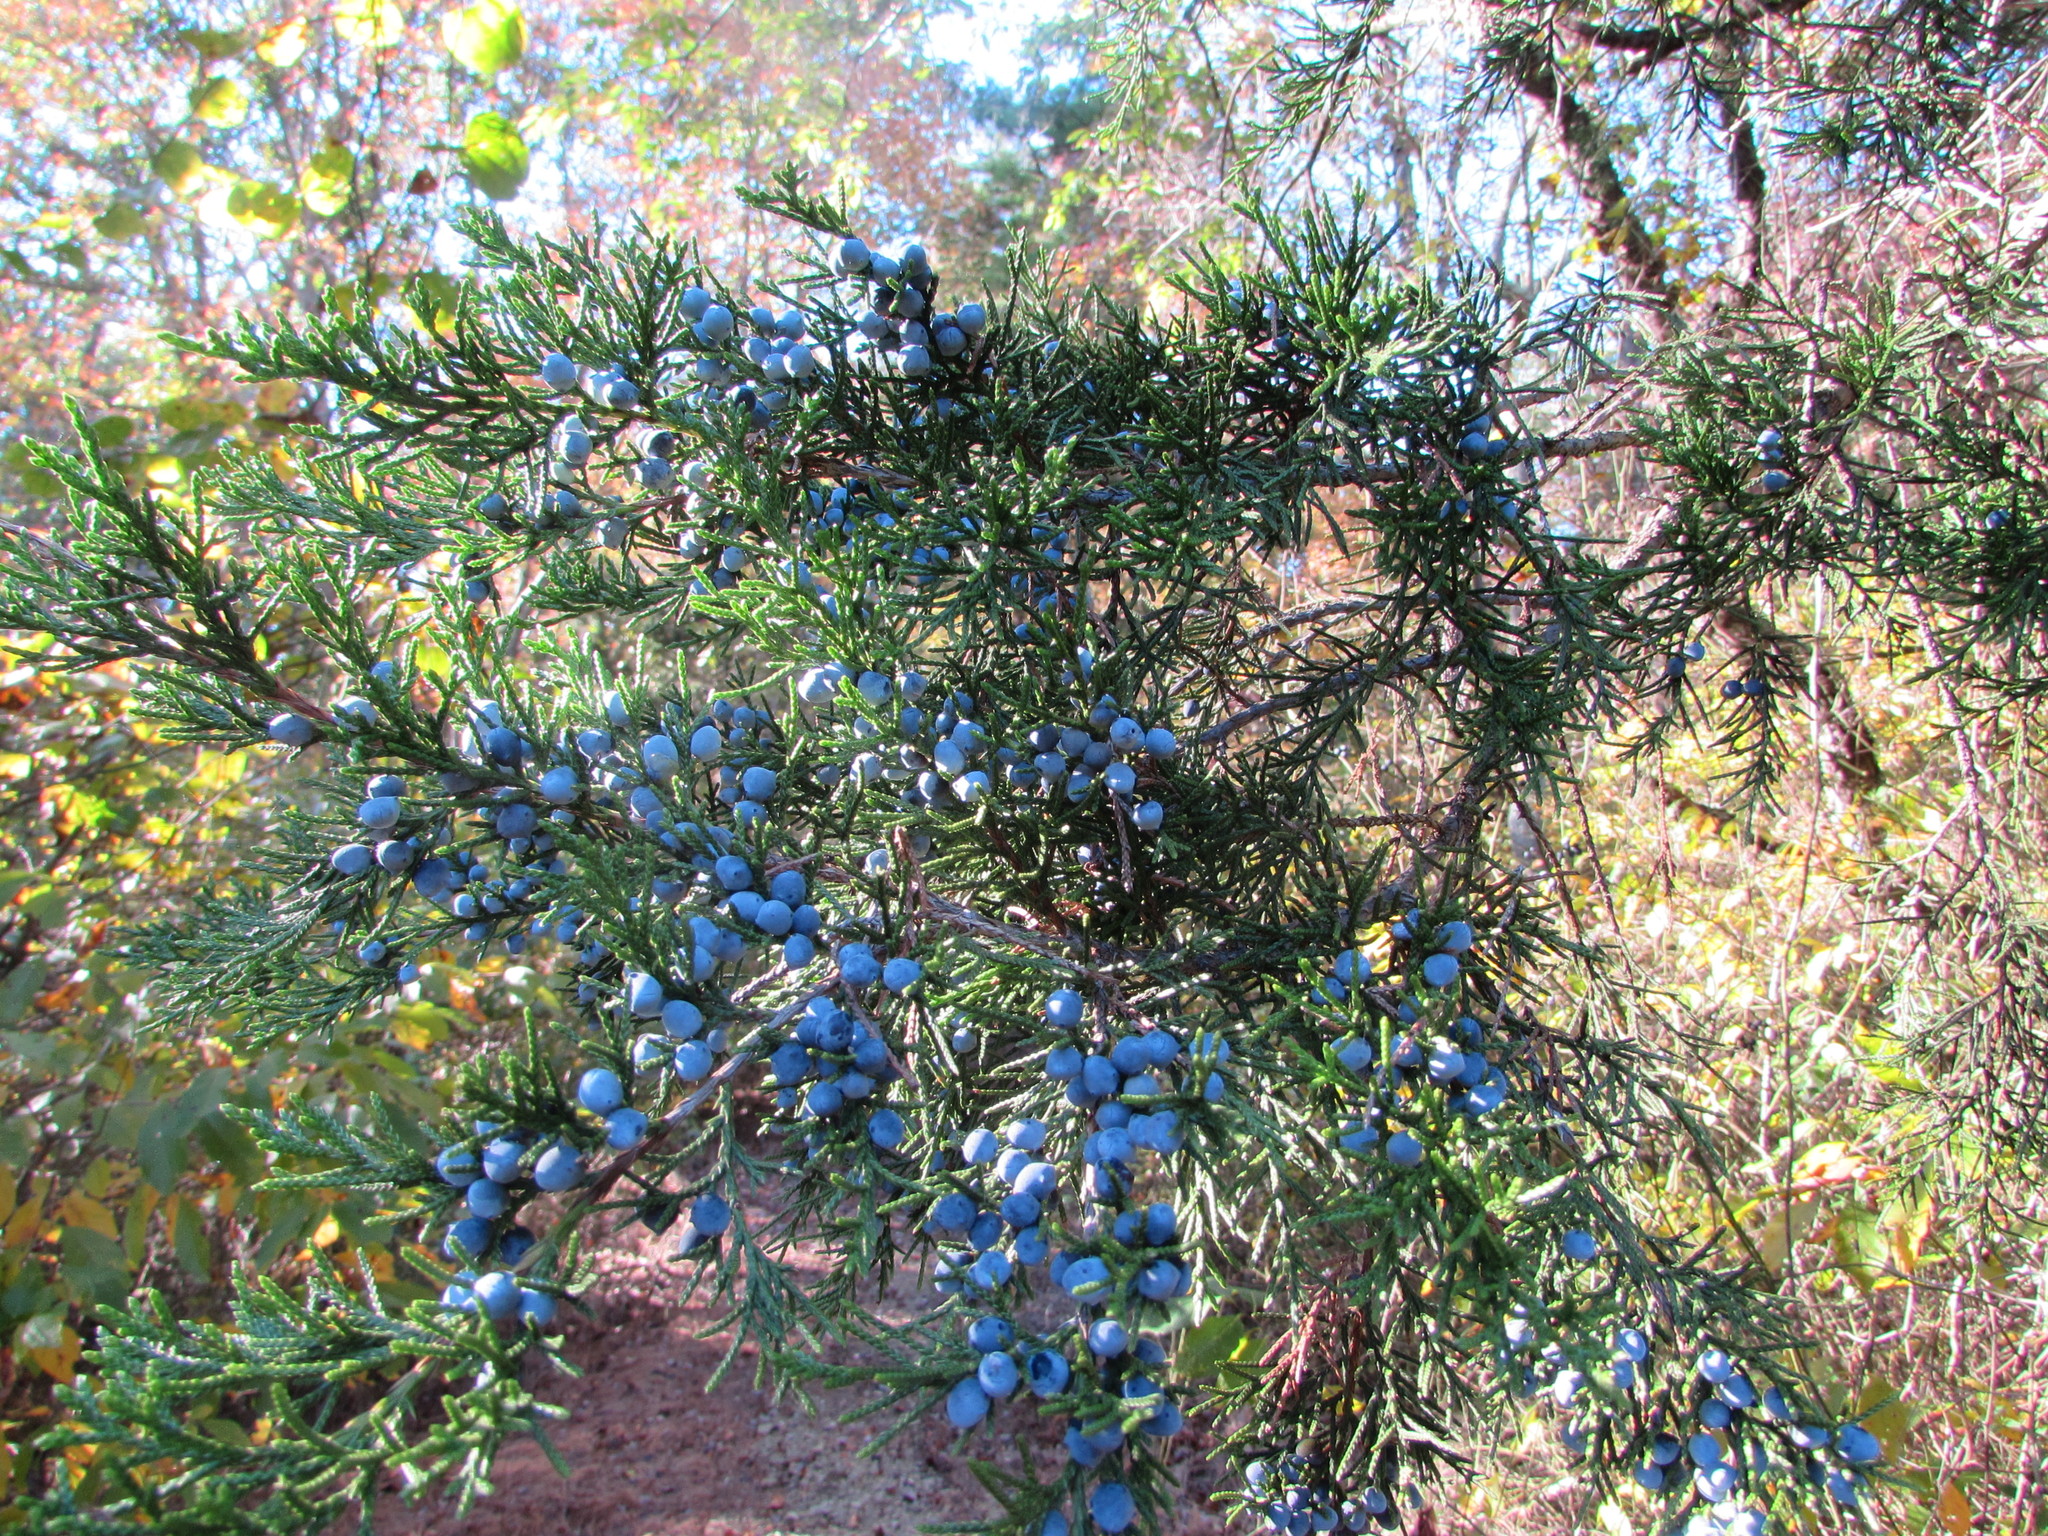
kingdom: Plantae
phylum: Tracheophyta
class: Pinopsida
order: Pinales
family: Cupressaceae
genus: Juniperus
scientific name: Juniperus virginiana
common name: Red juniper
